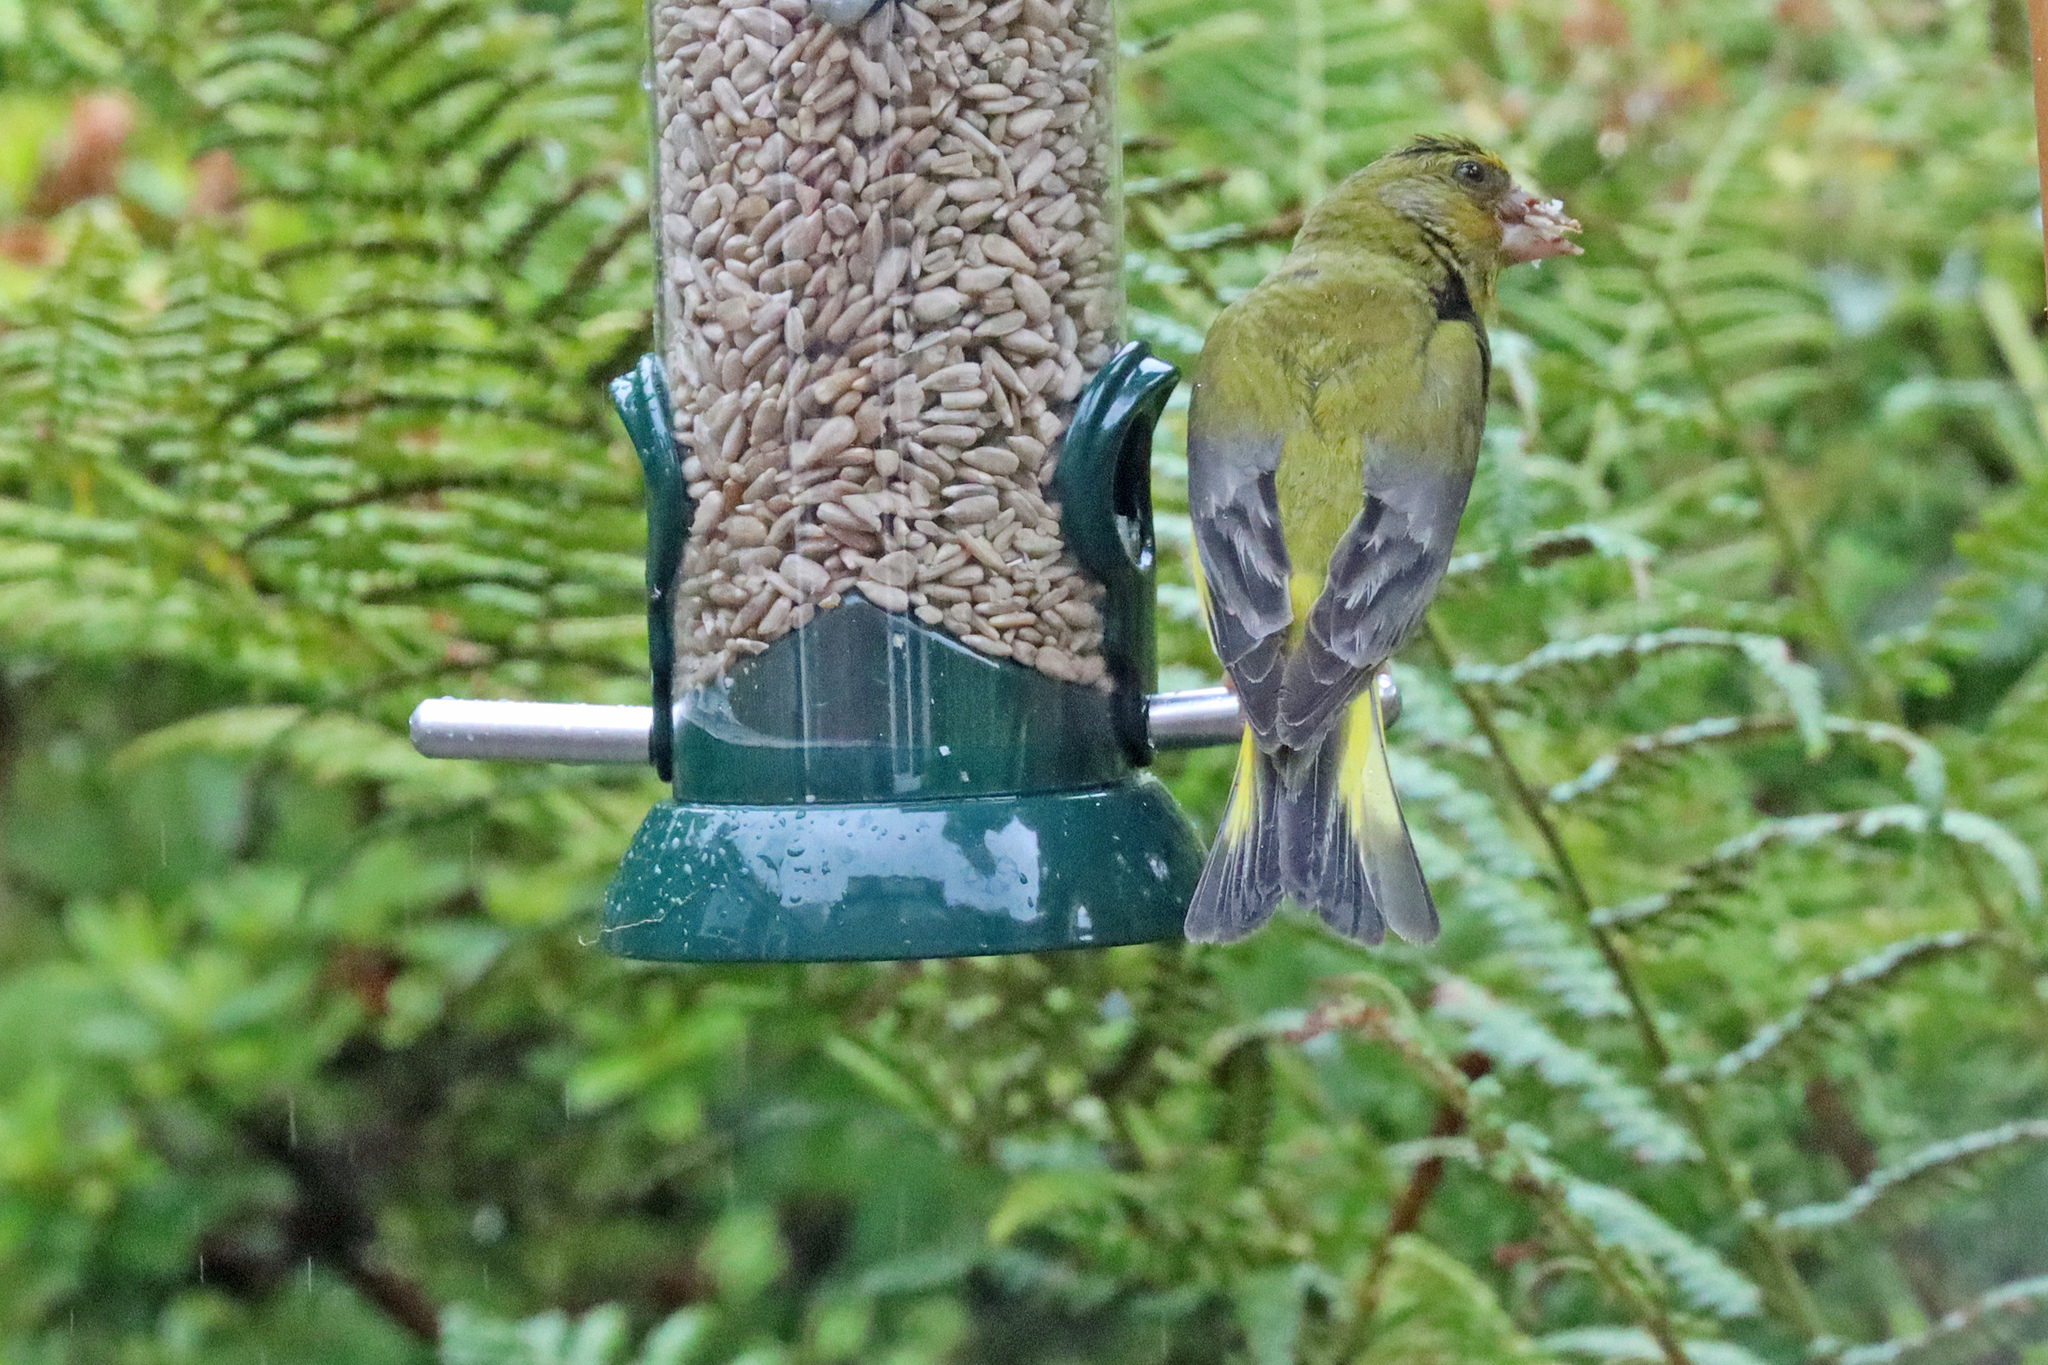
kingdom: Plantae
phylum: Tracheophyta
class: Liliopsida
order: Poales
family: Poaceae
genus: Chloris
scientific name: Chloris chloris
